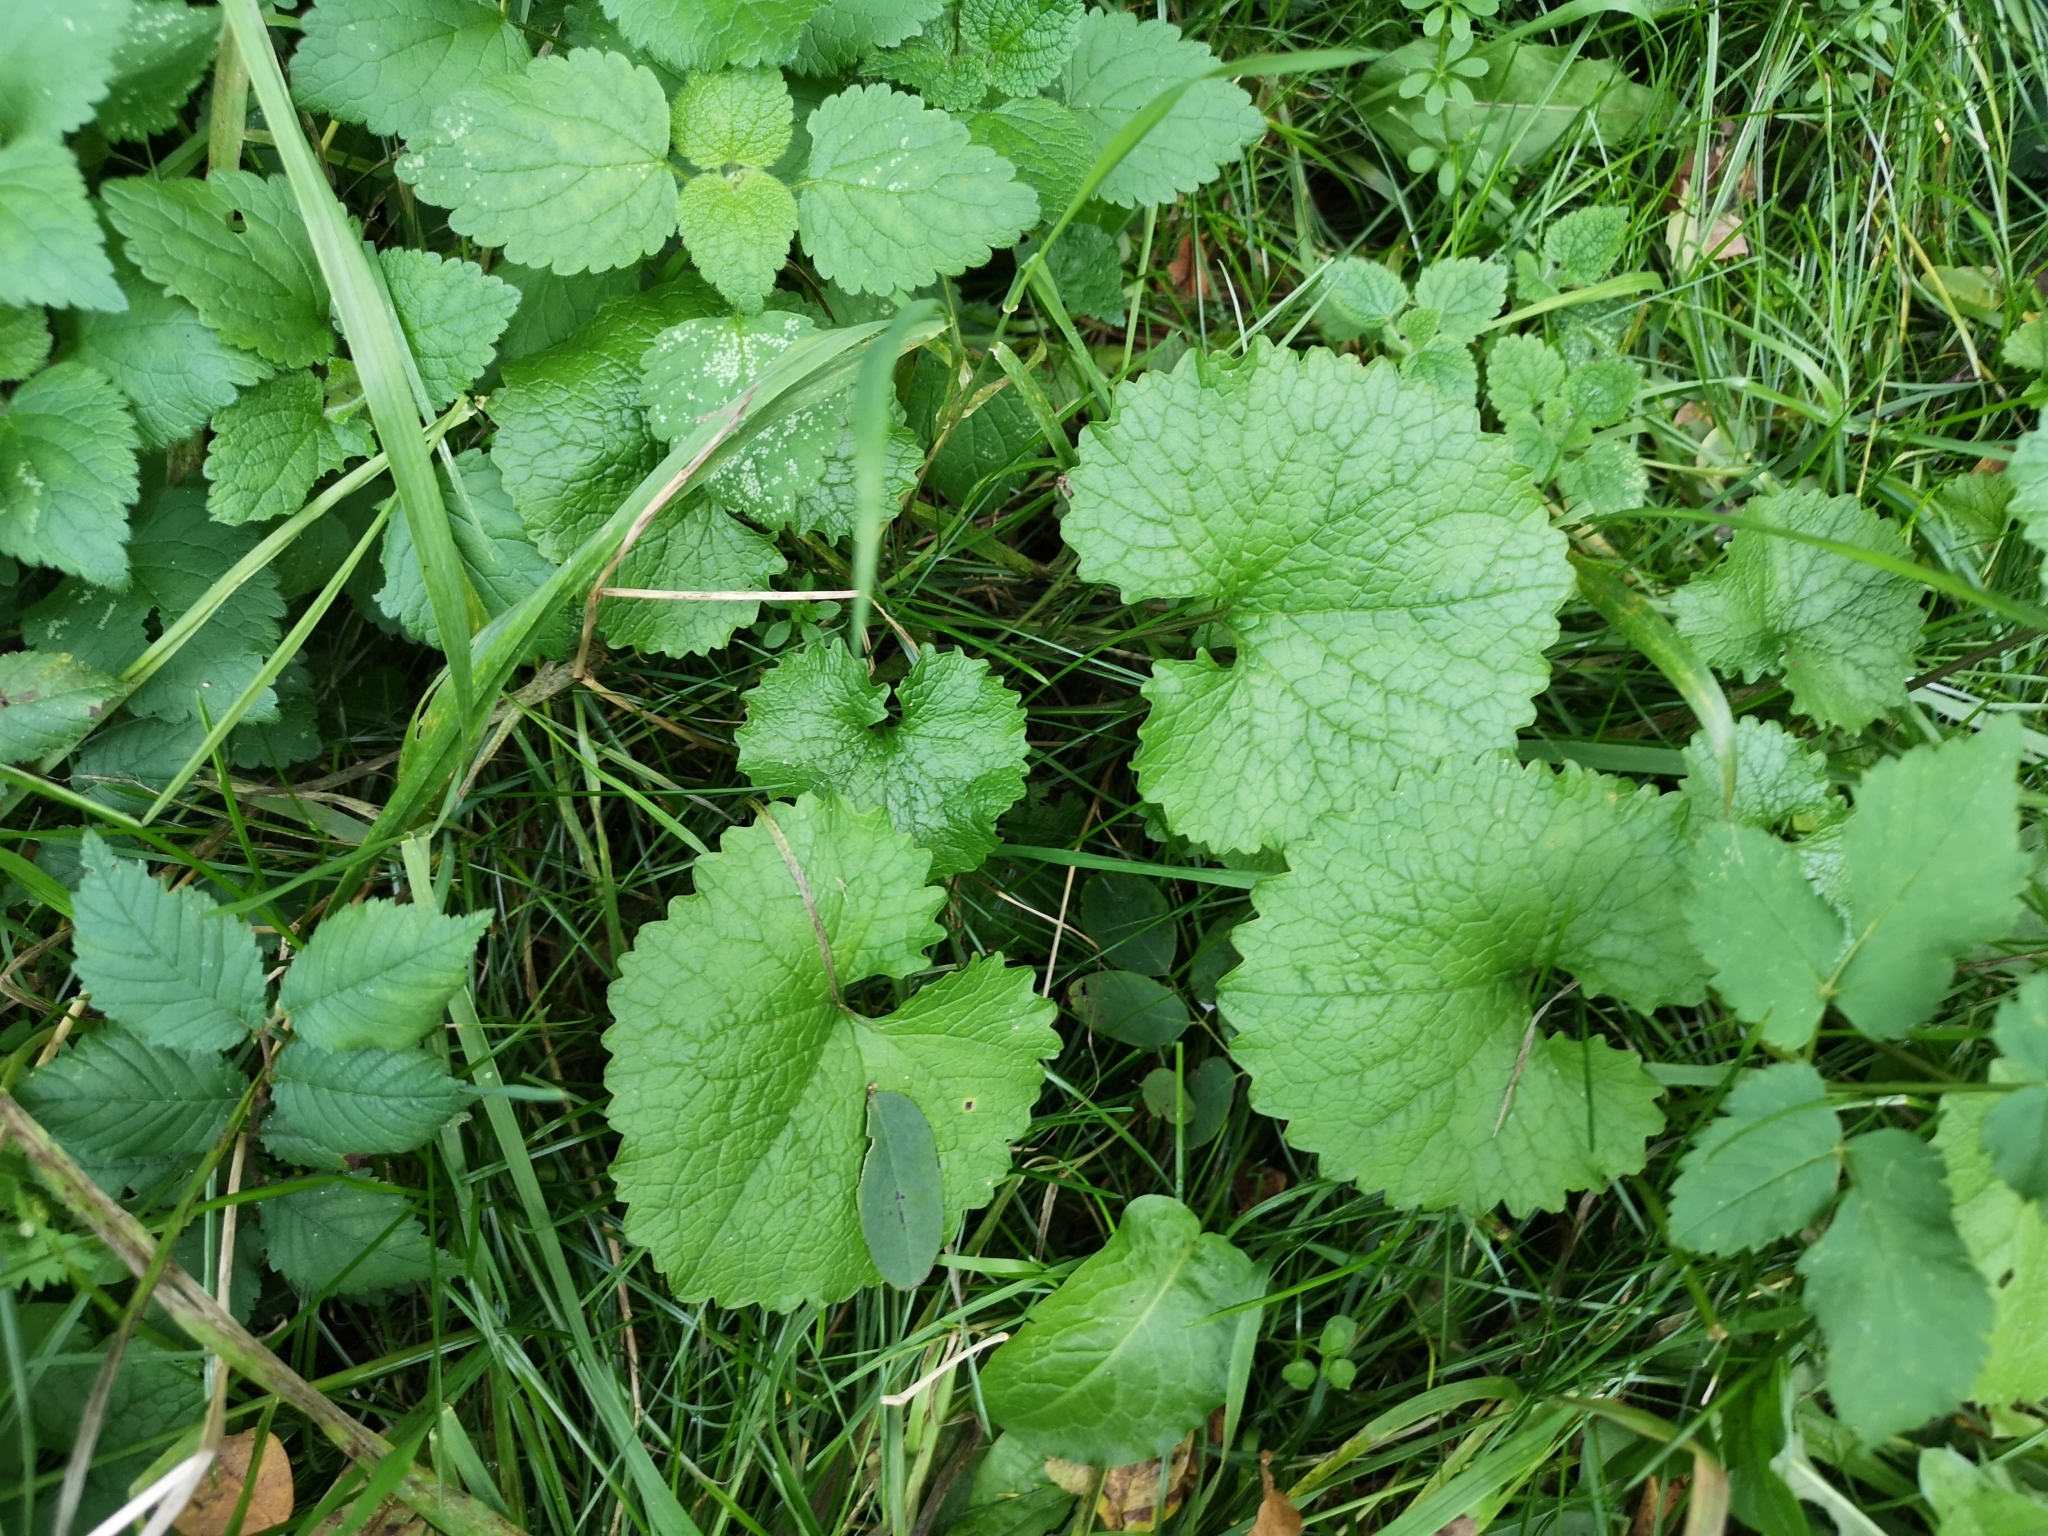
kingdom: Plantae
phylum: Tracheophyta
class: Magnoliopsida
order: Brassicales
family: Brassicaceae
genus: Alliaria
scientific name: Alliaria petiolata
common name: Garlic mustard
